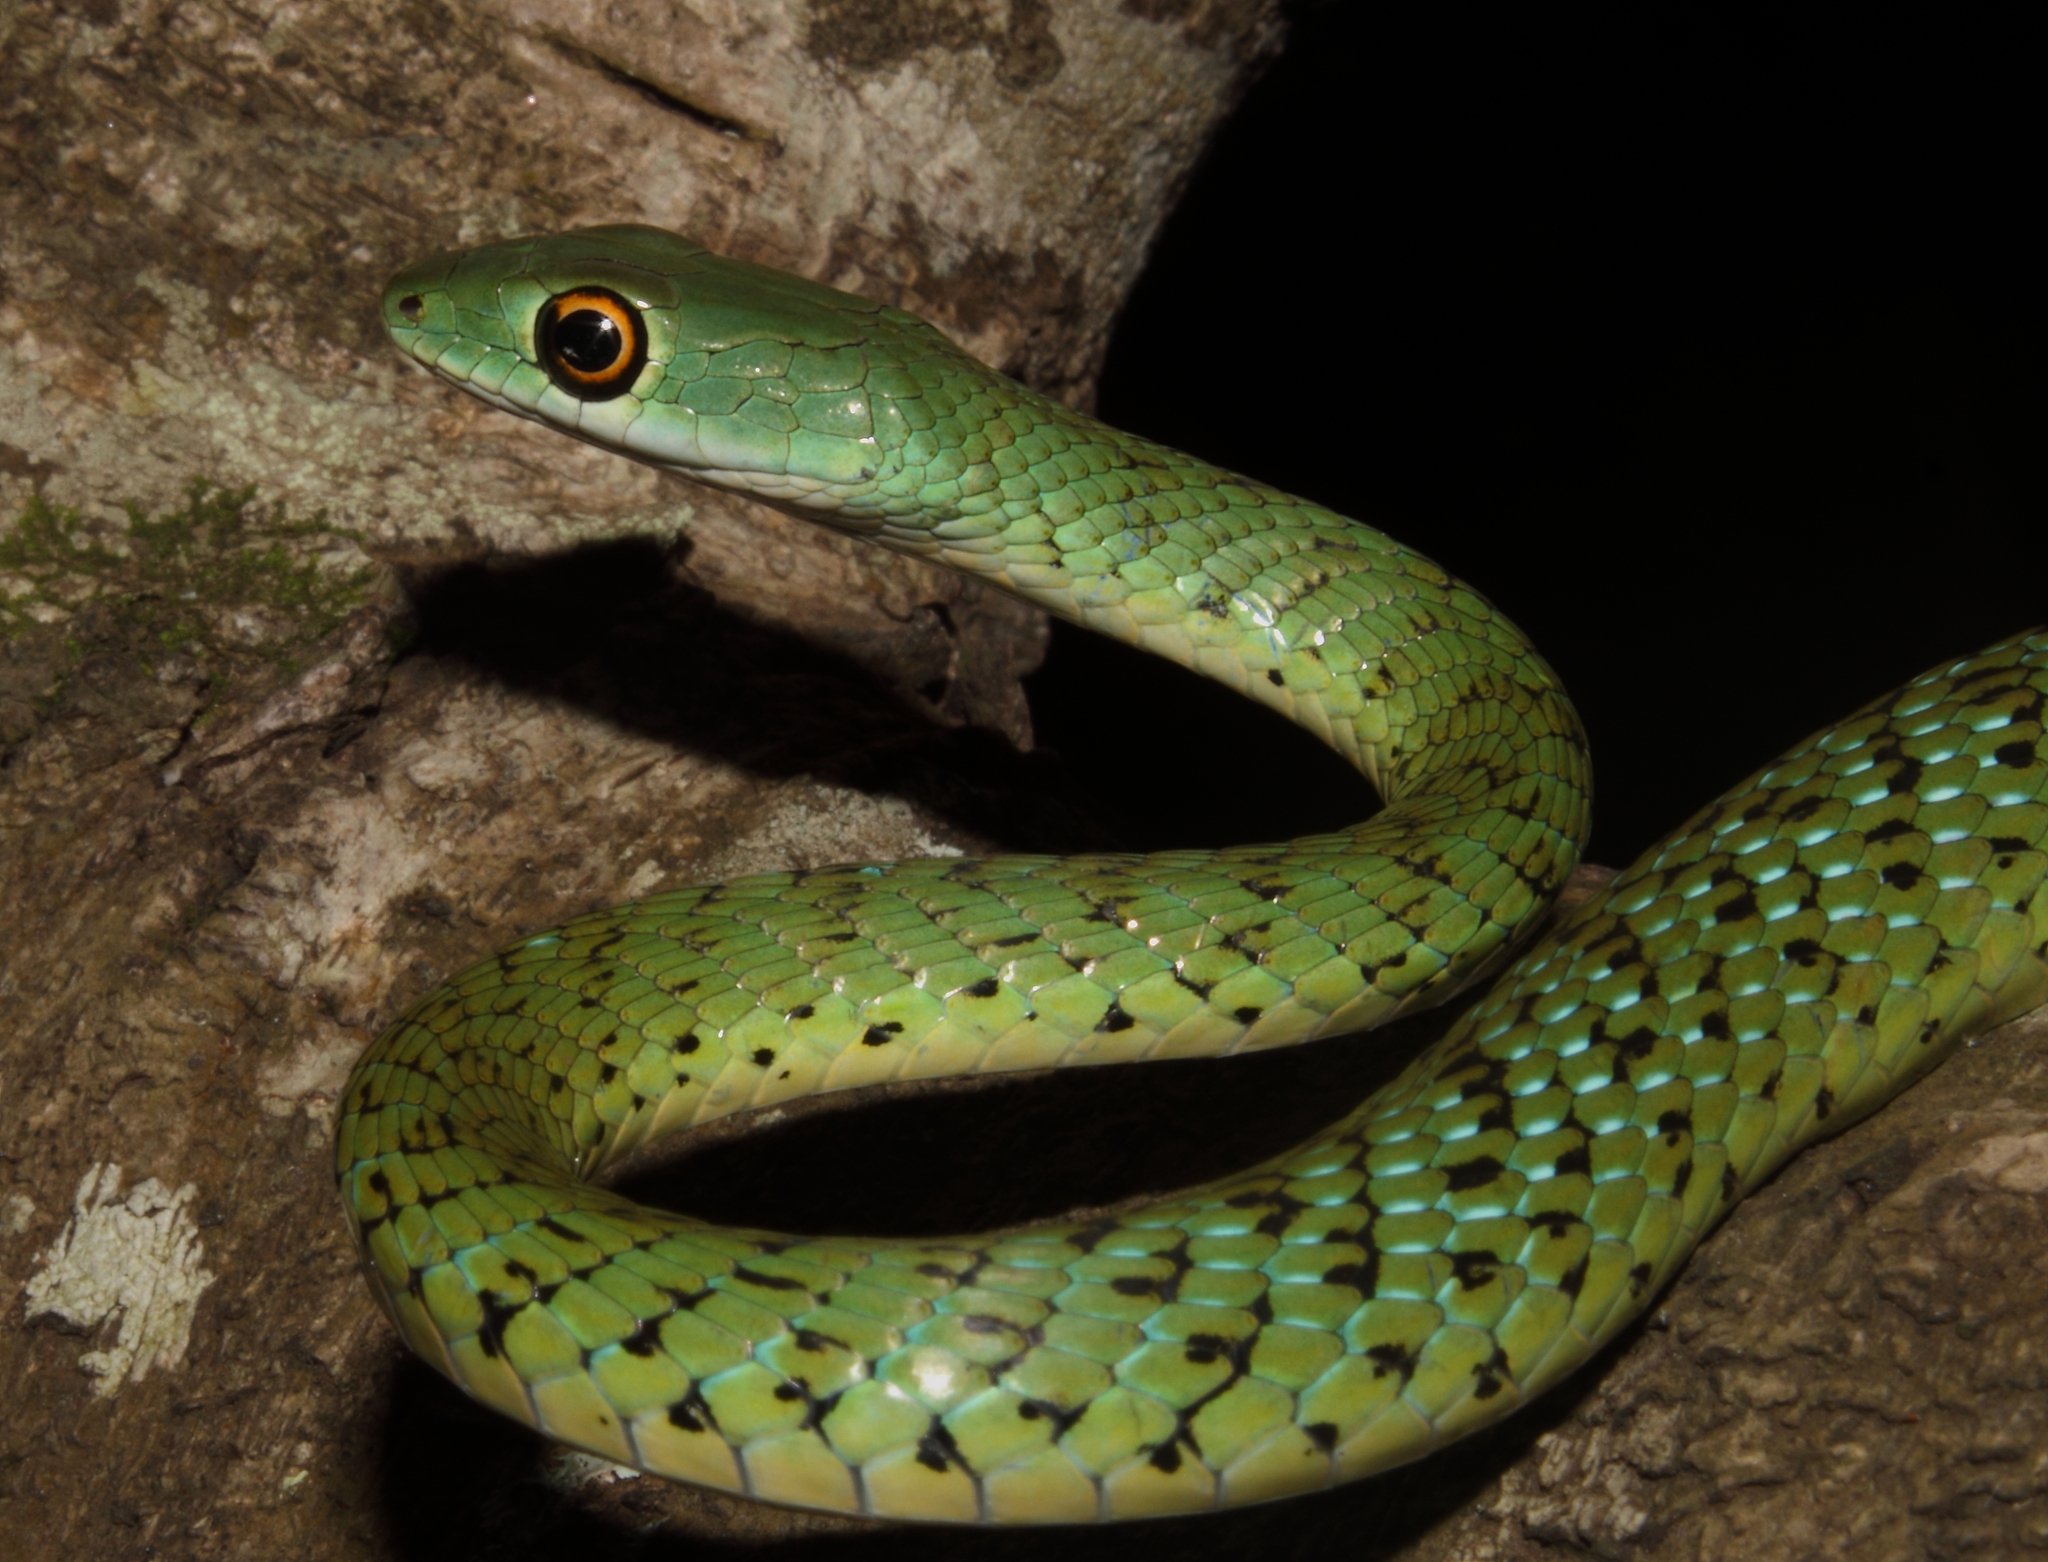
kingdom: Animalia
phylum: Chordata
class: Squamata
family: Colubridae
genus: Philothamnus
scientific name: Philothamnus semivariegatus
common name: Spotted bush snake
